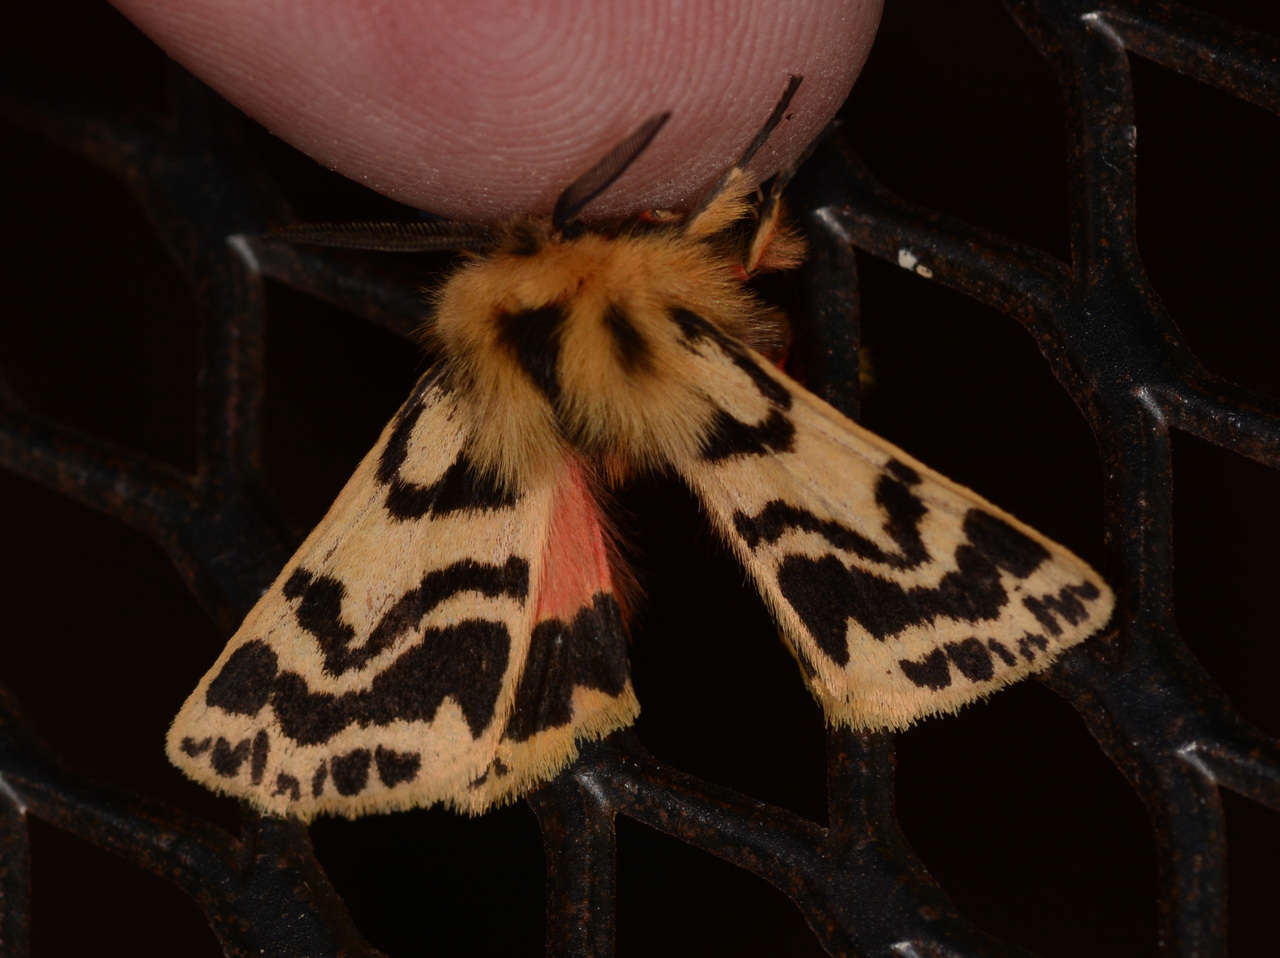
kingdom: Animalia
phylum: Arthropoda
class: Insecta
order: Lepidoptera
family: Erebidae
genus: Ardices
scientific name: Ardices curvata
